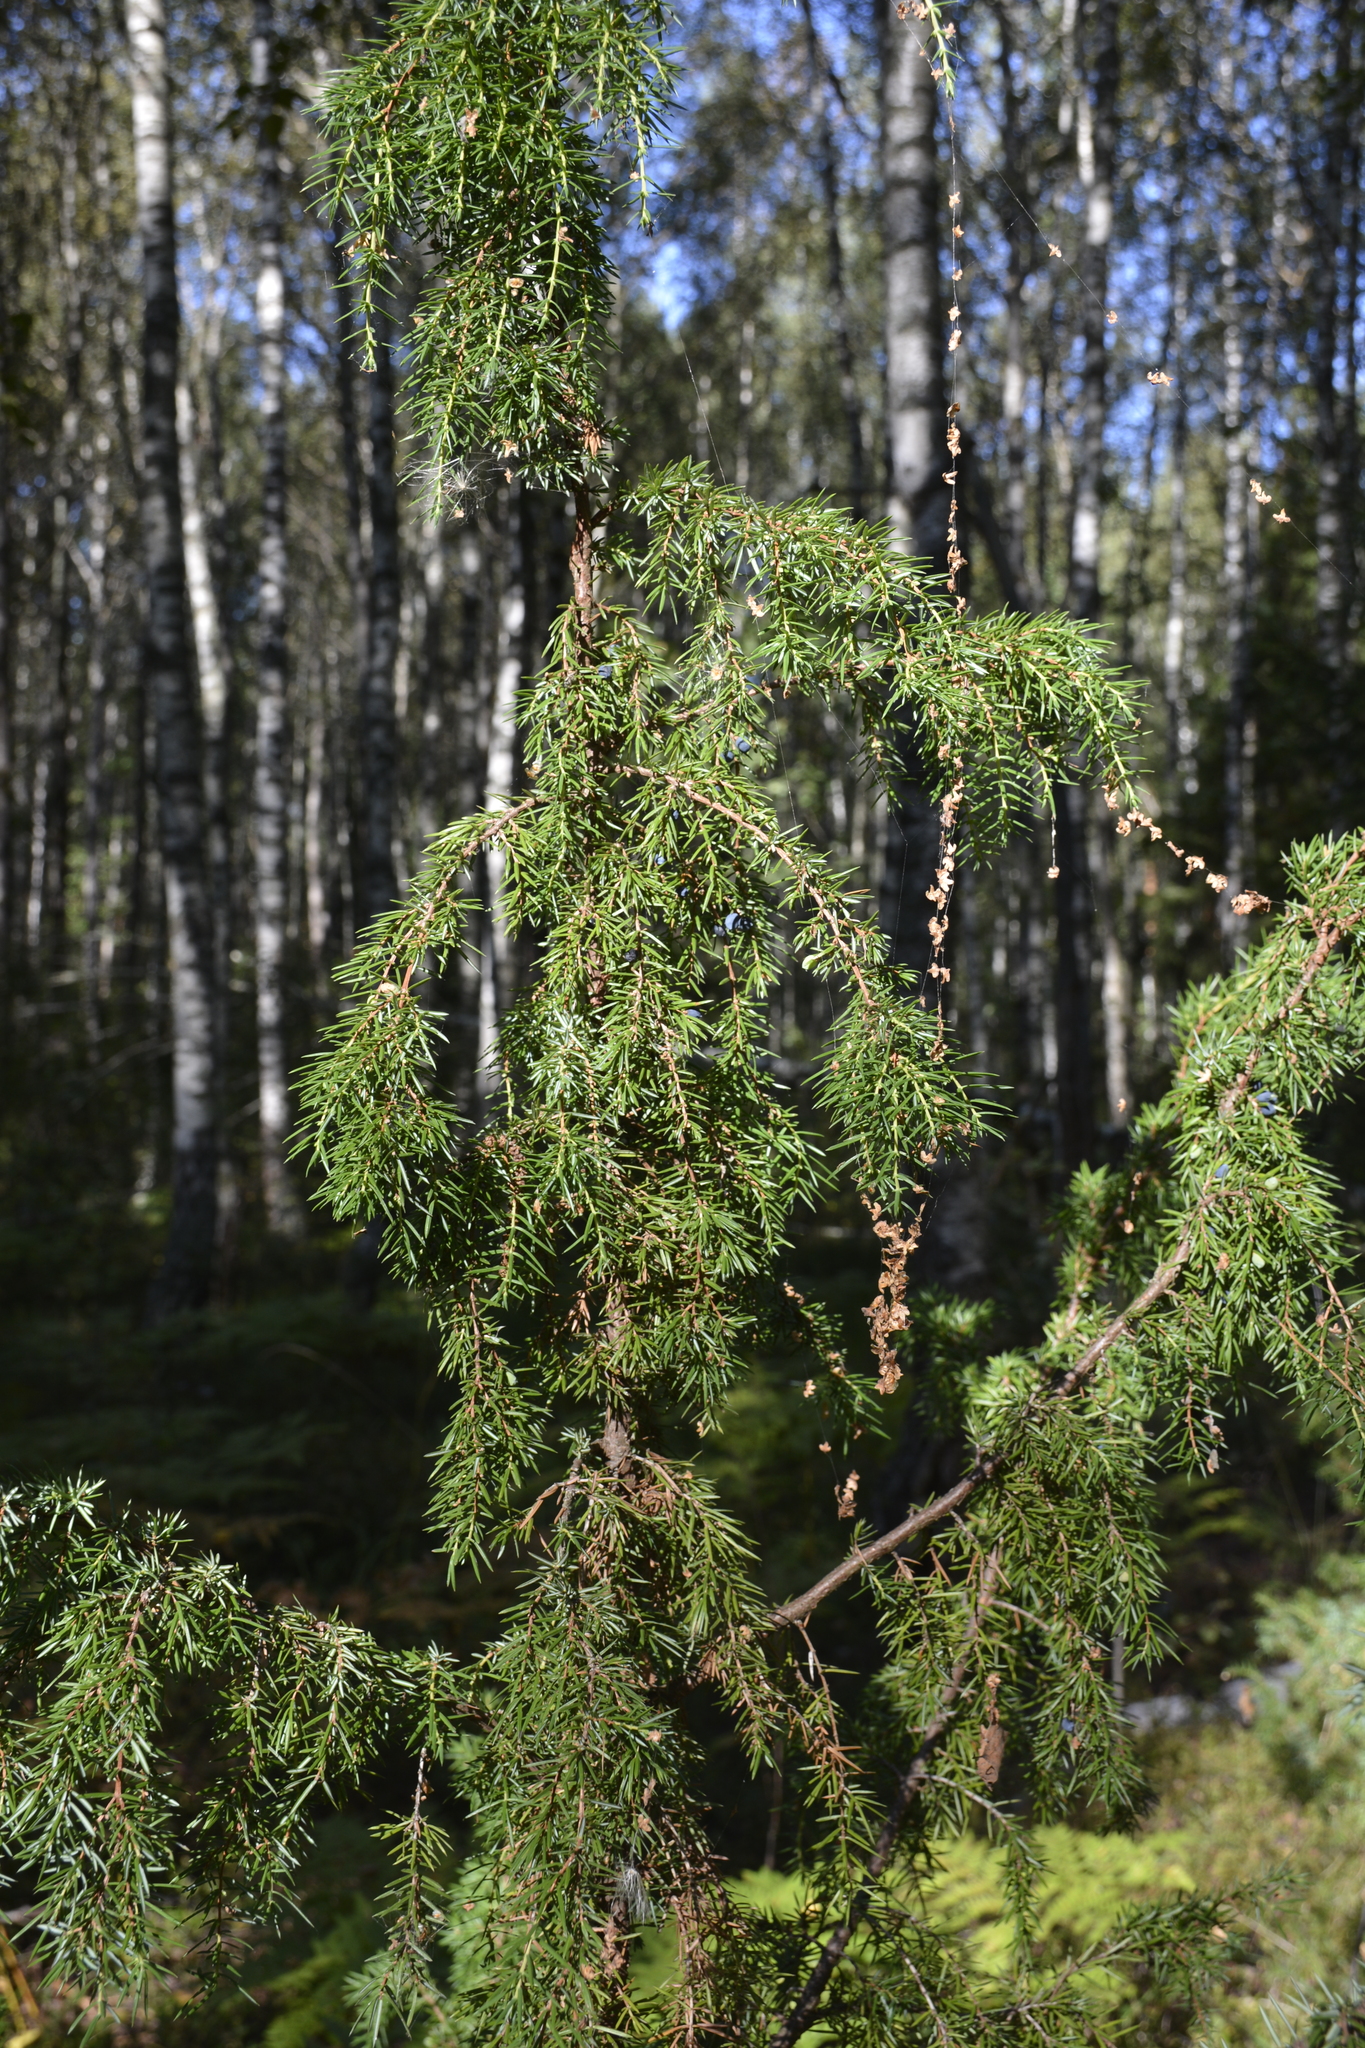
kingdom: Plantae
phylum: Tracheophyta
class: Pinopsida
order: Pinales
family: Cupressaceae
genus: Juniperus
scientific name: Juniperus communis
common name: Common juniper
